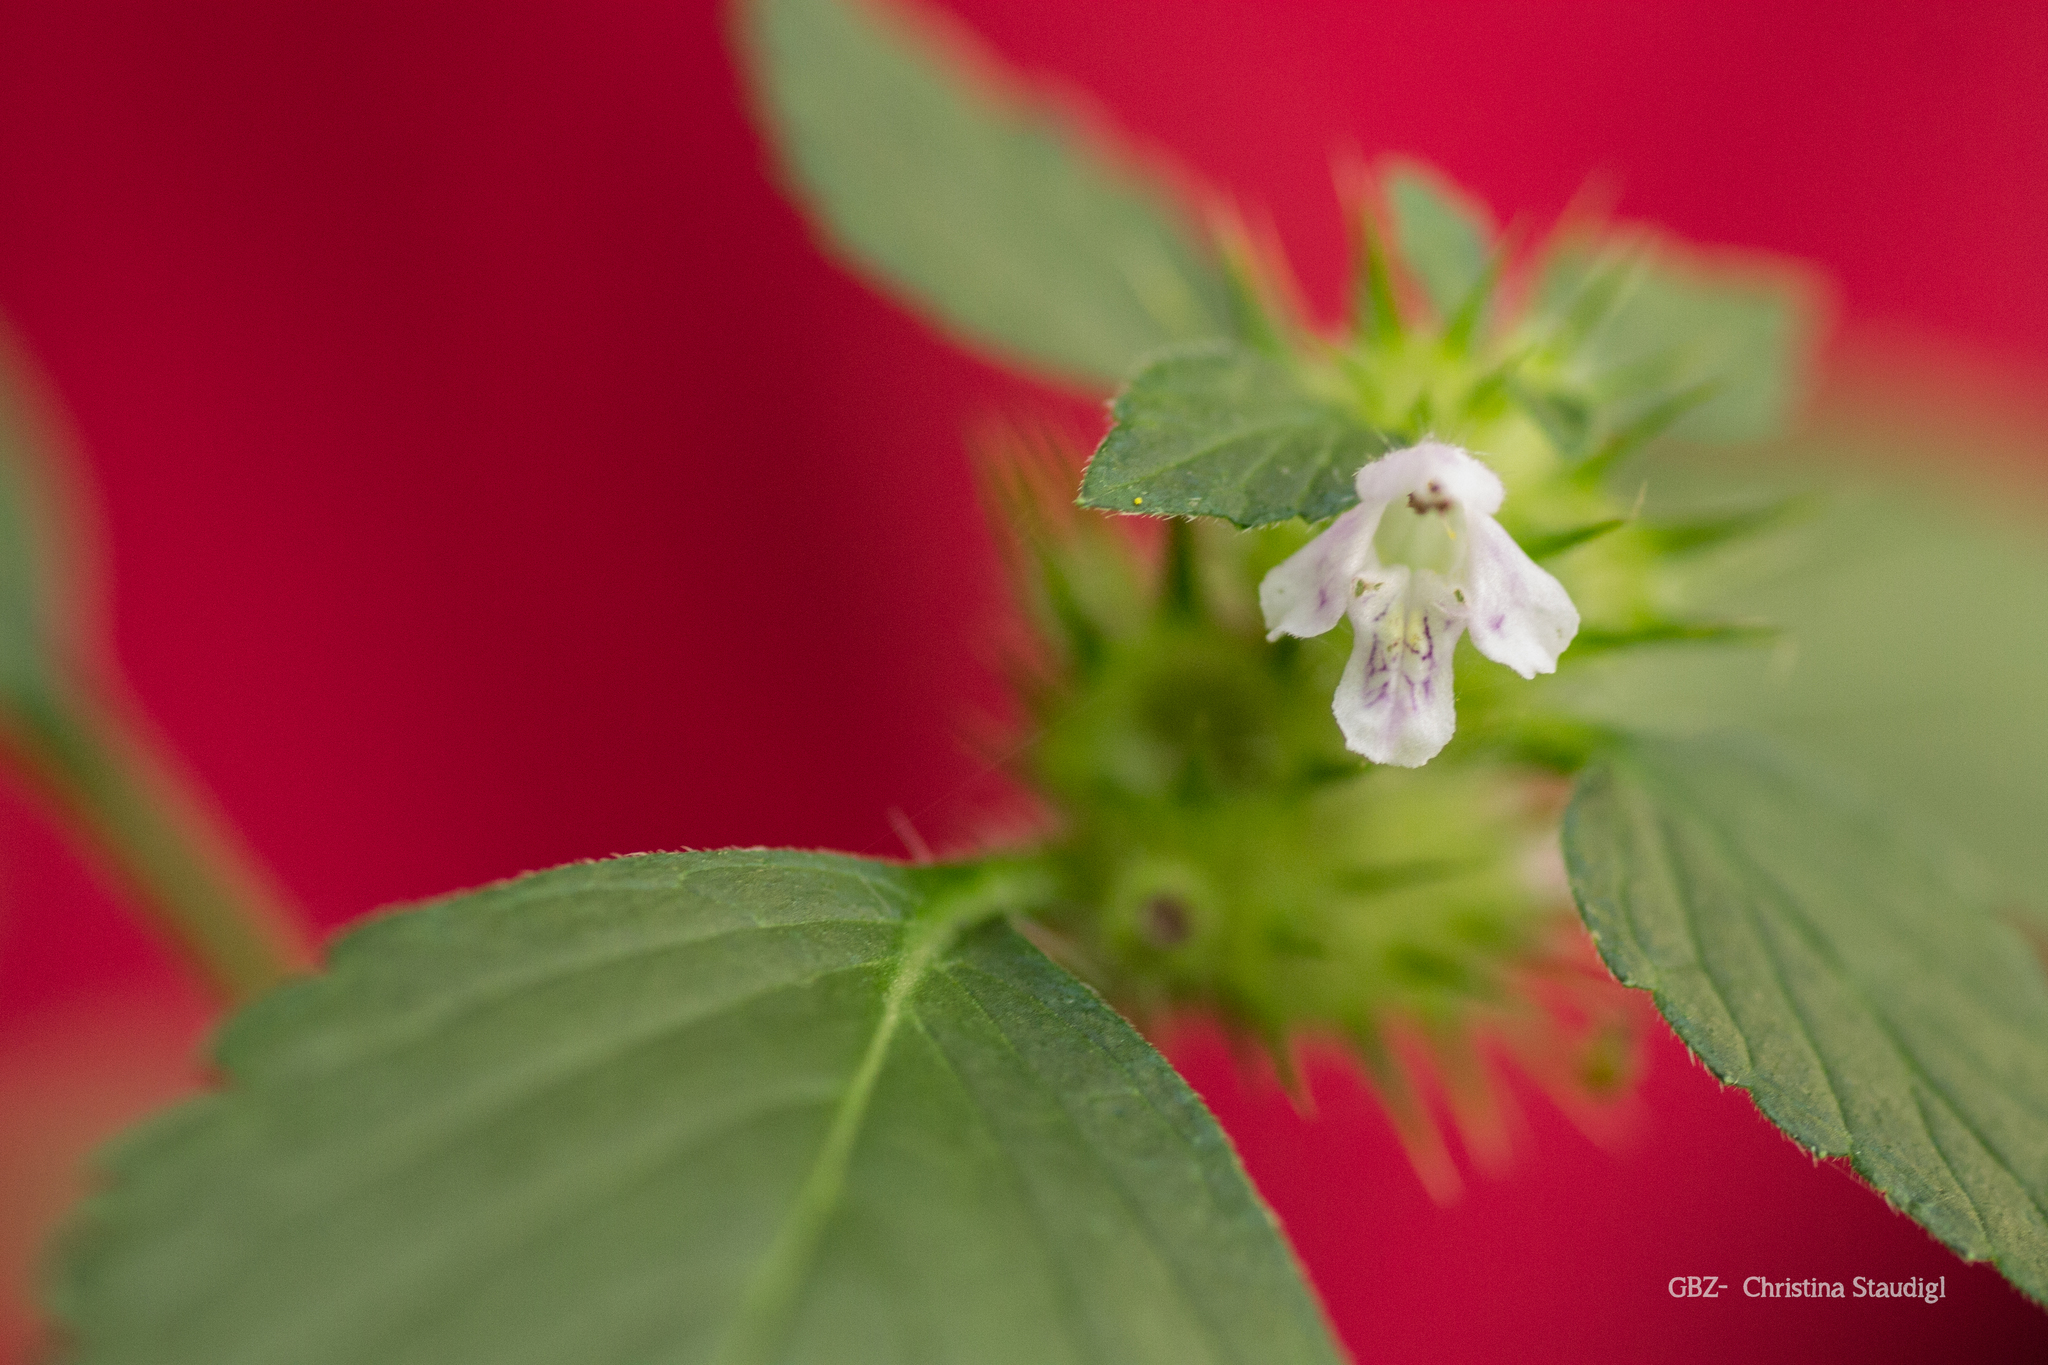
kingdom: Plantae
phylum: Tracheophyta
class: Magnoliopsida
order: Lamiales
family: Lamiaceae
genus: Galeopsis
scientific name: Galeopsis tetrahit
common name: Common hemp-nettle
